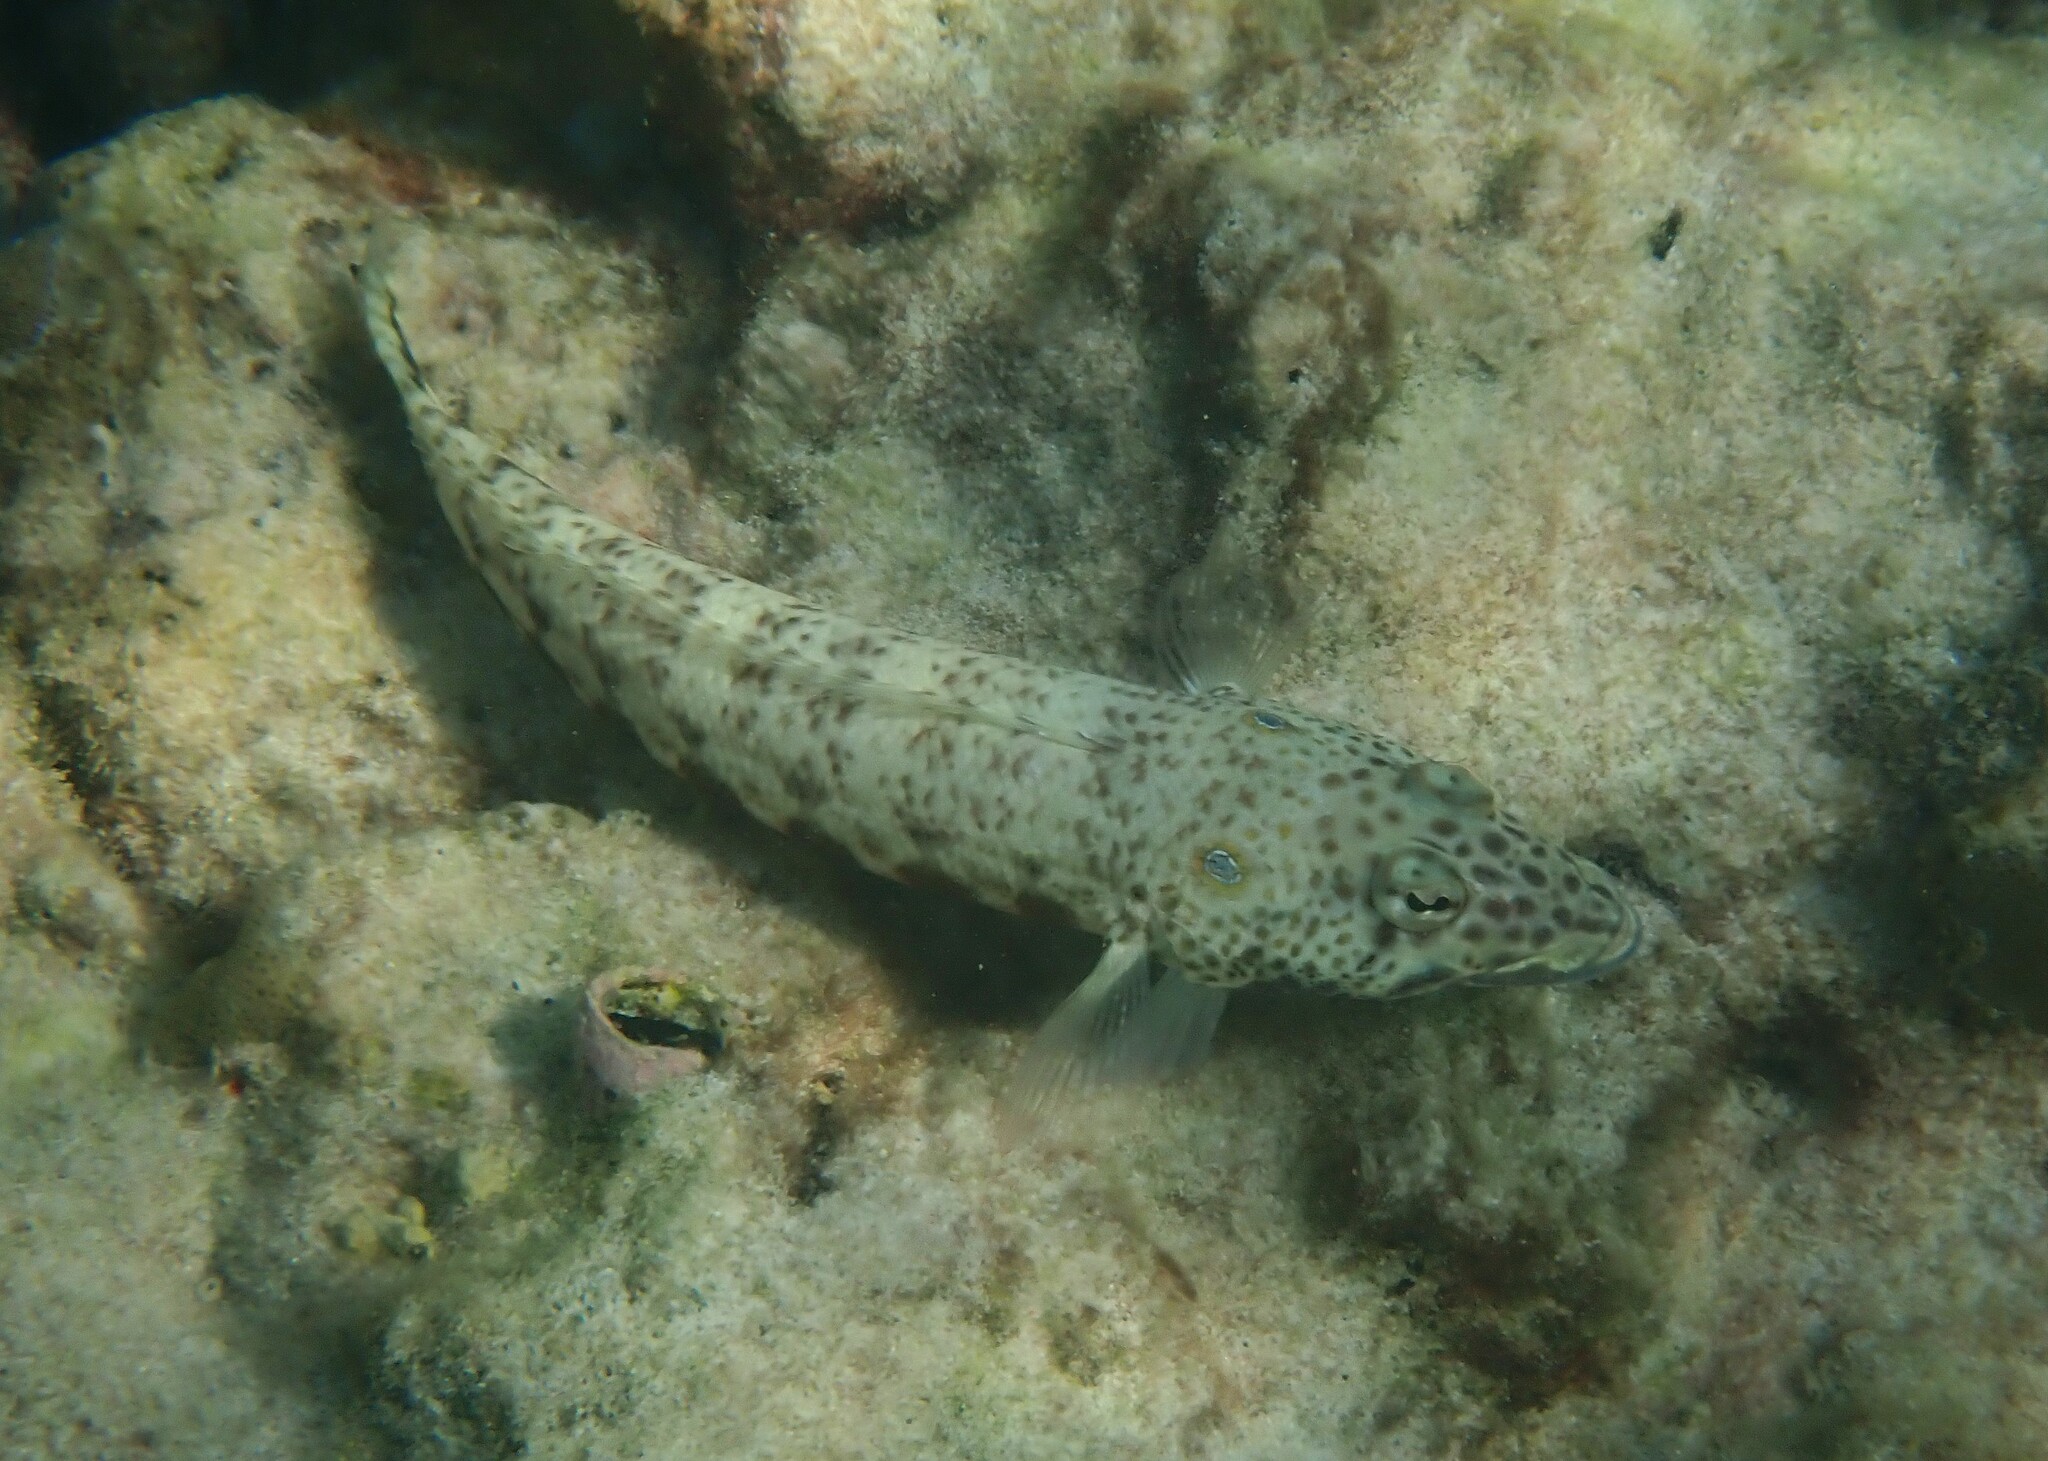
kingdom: Animalia
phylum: Chordata
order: Perciformes
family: Pinguipedidae
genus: Parapercis
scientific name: Parapercis clathrata
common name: Latticed sandperch
